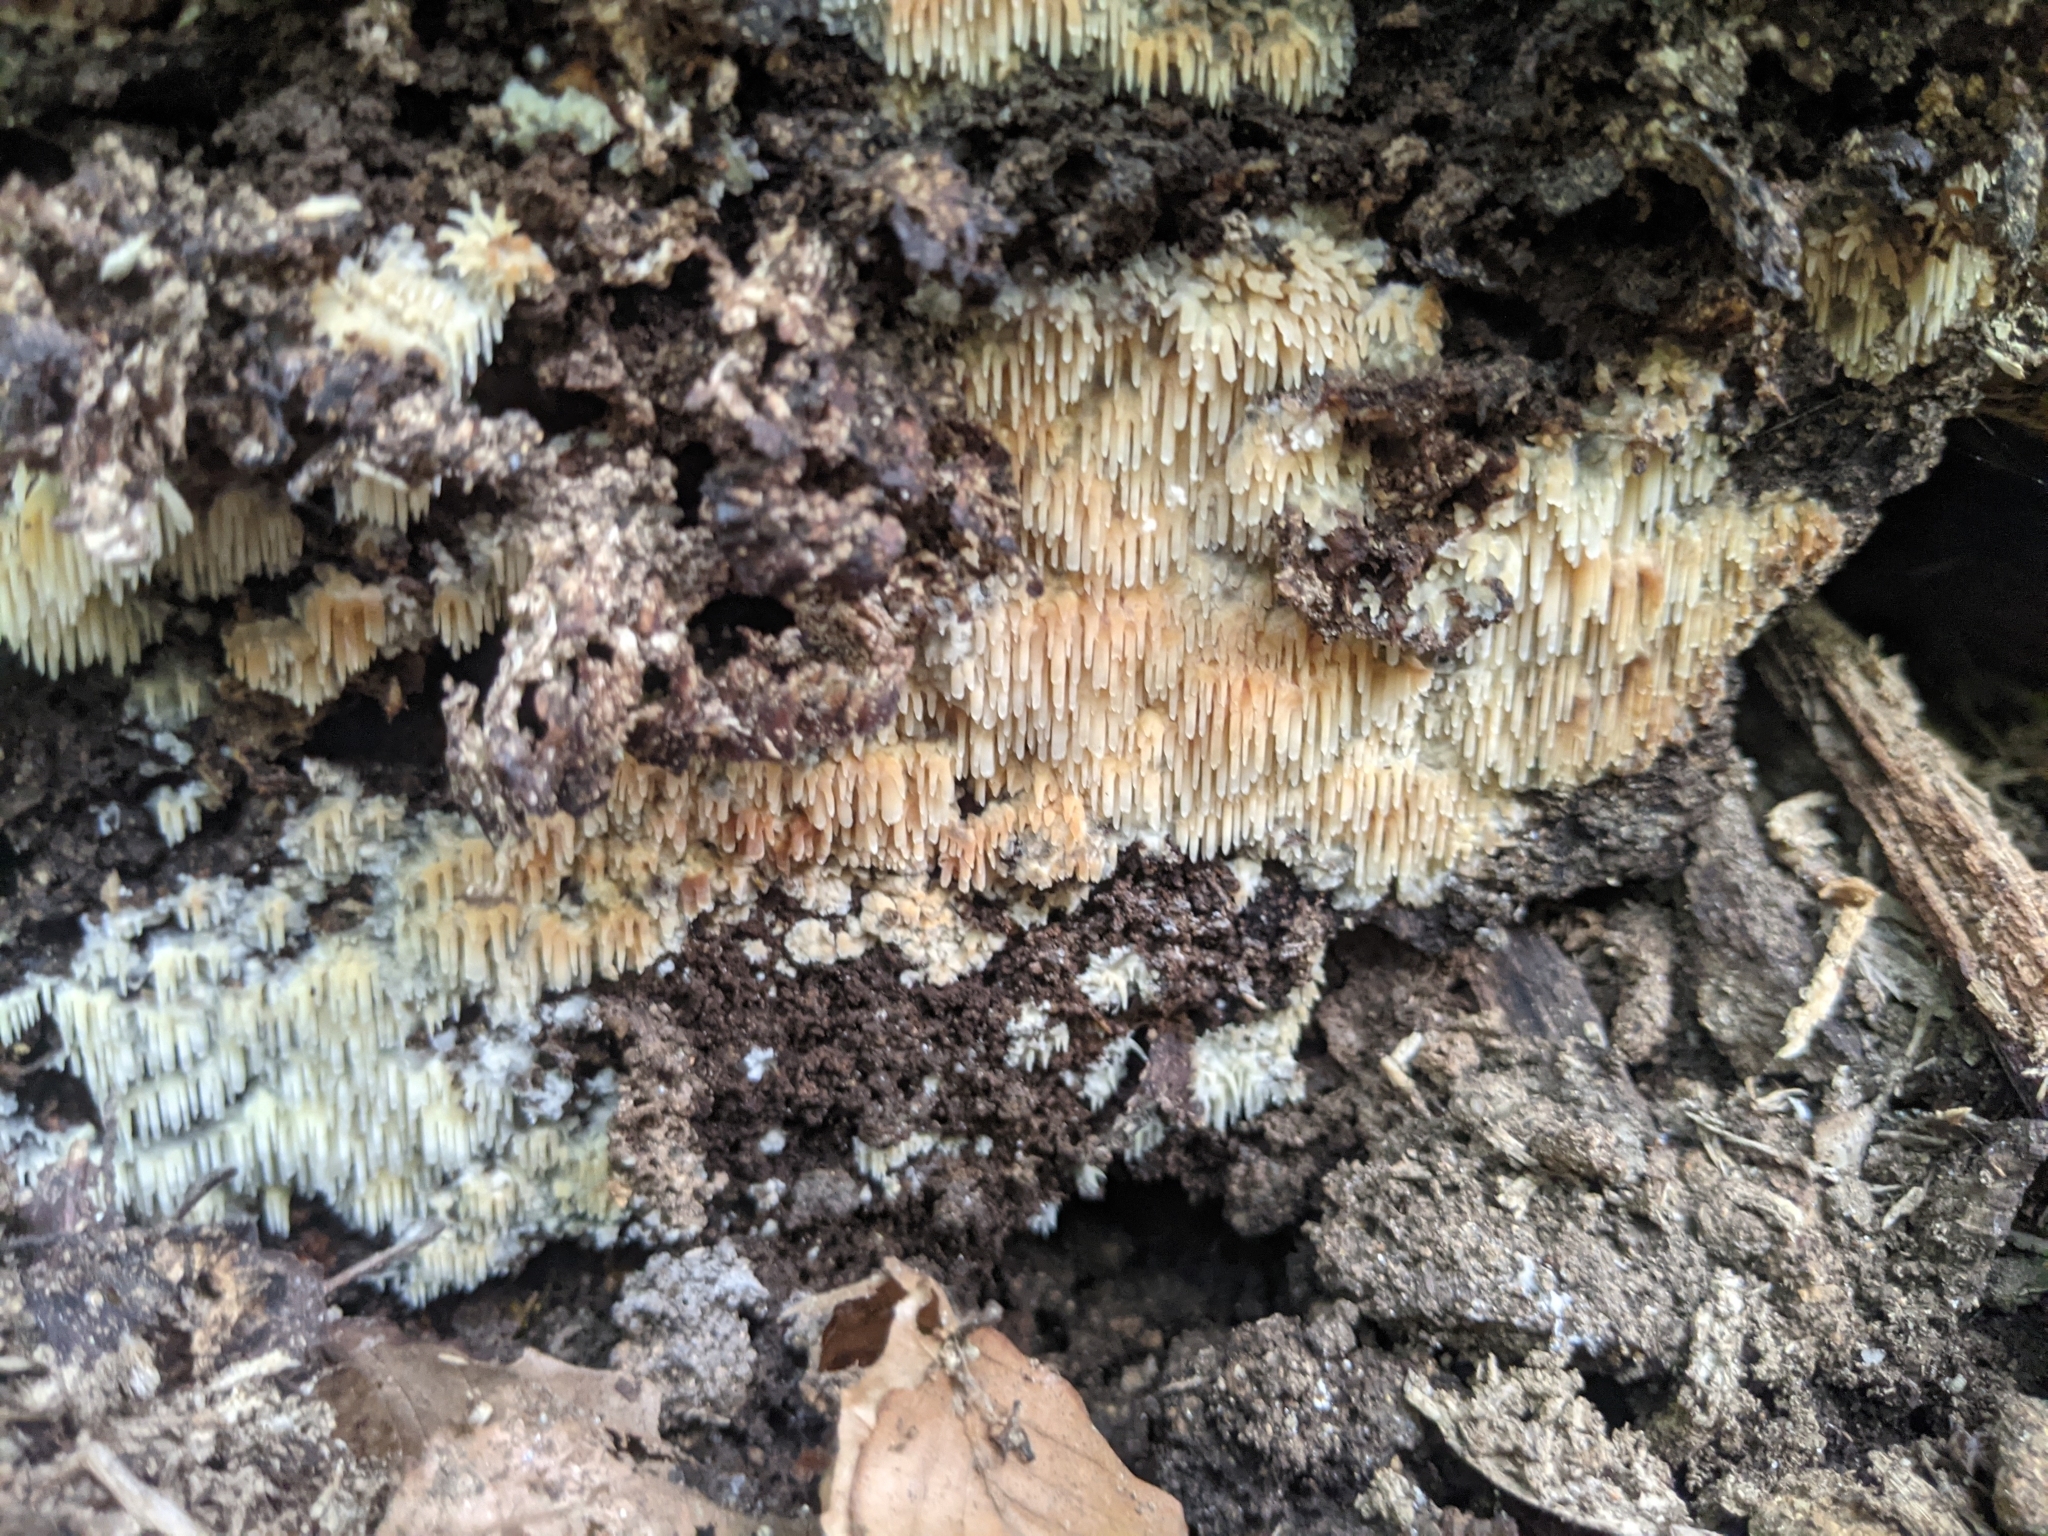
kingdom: Fungi
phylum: Basidiomycota
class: Agaricomycetes
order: Agaricales
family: Radulomycetaceae
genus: Radulomyces
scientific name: Radulomyces copelandii
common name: Asian beauty
